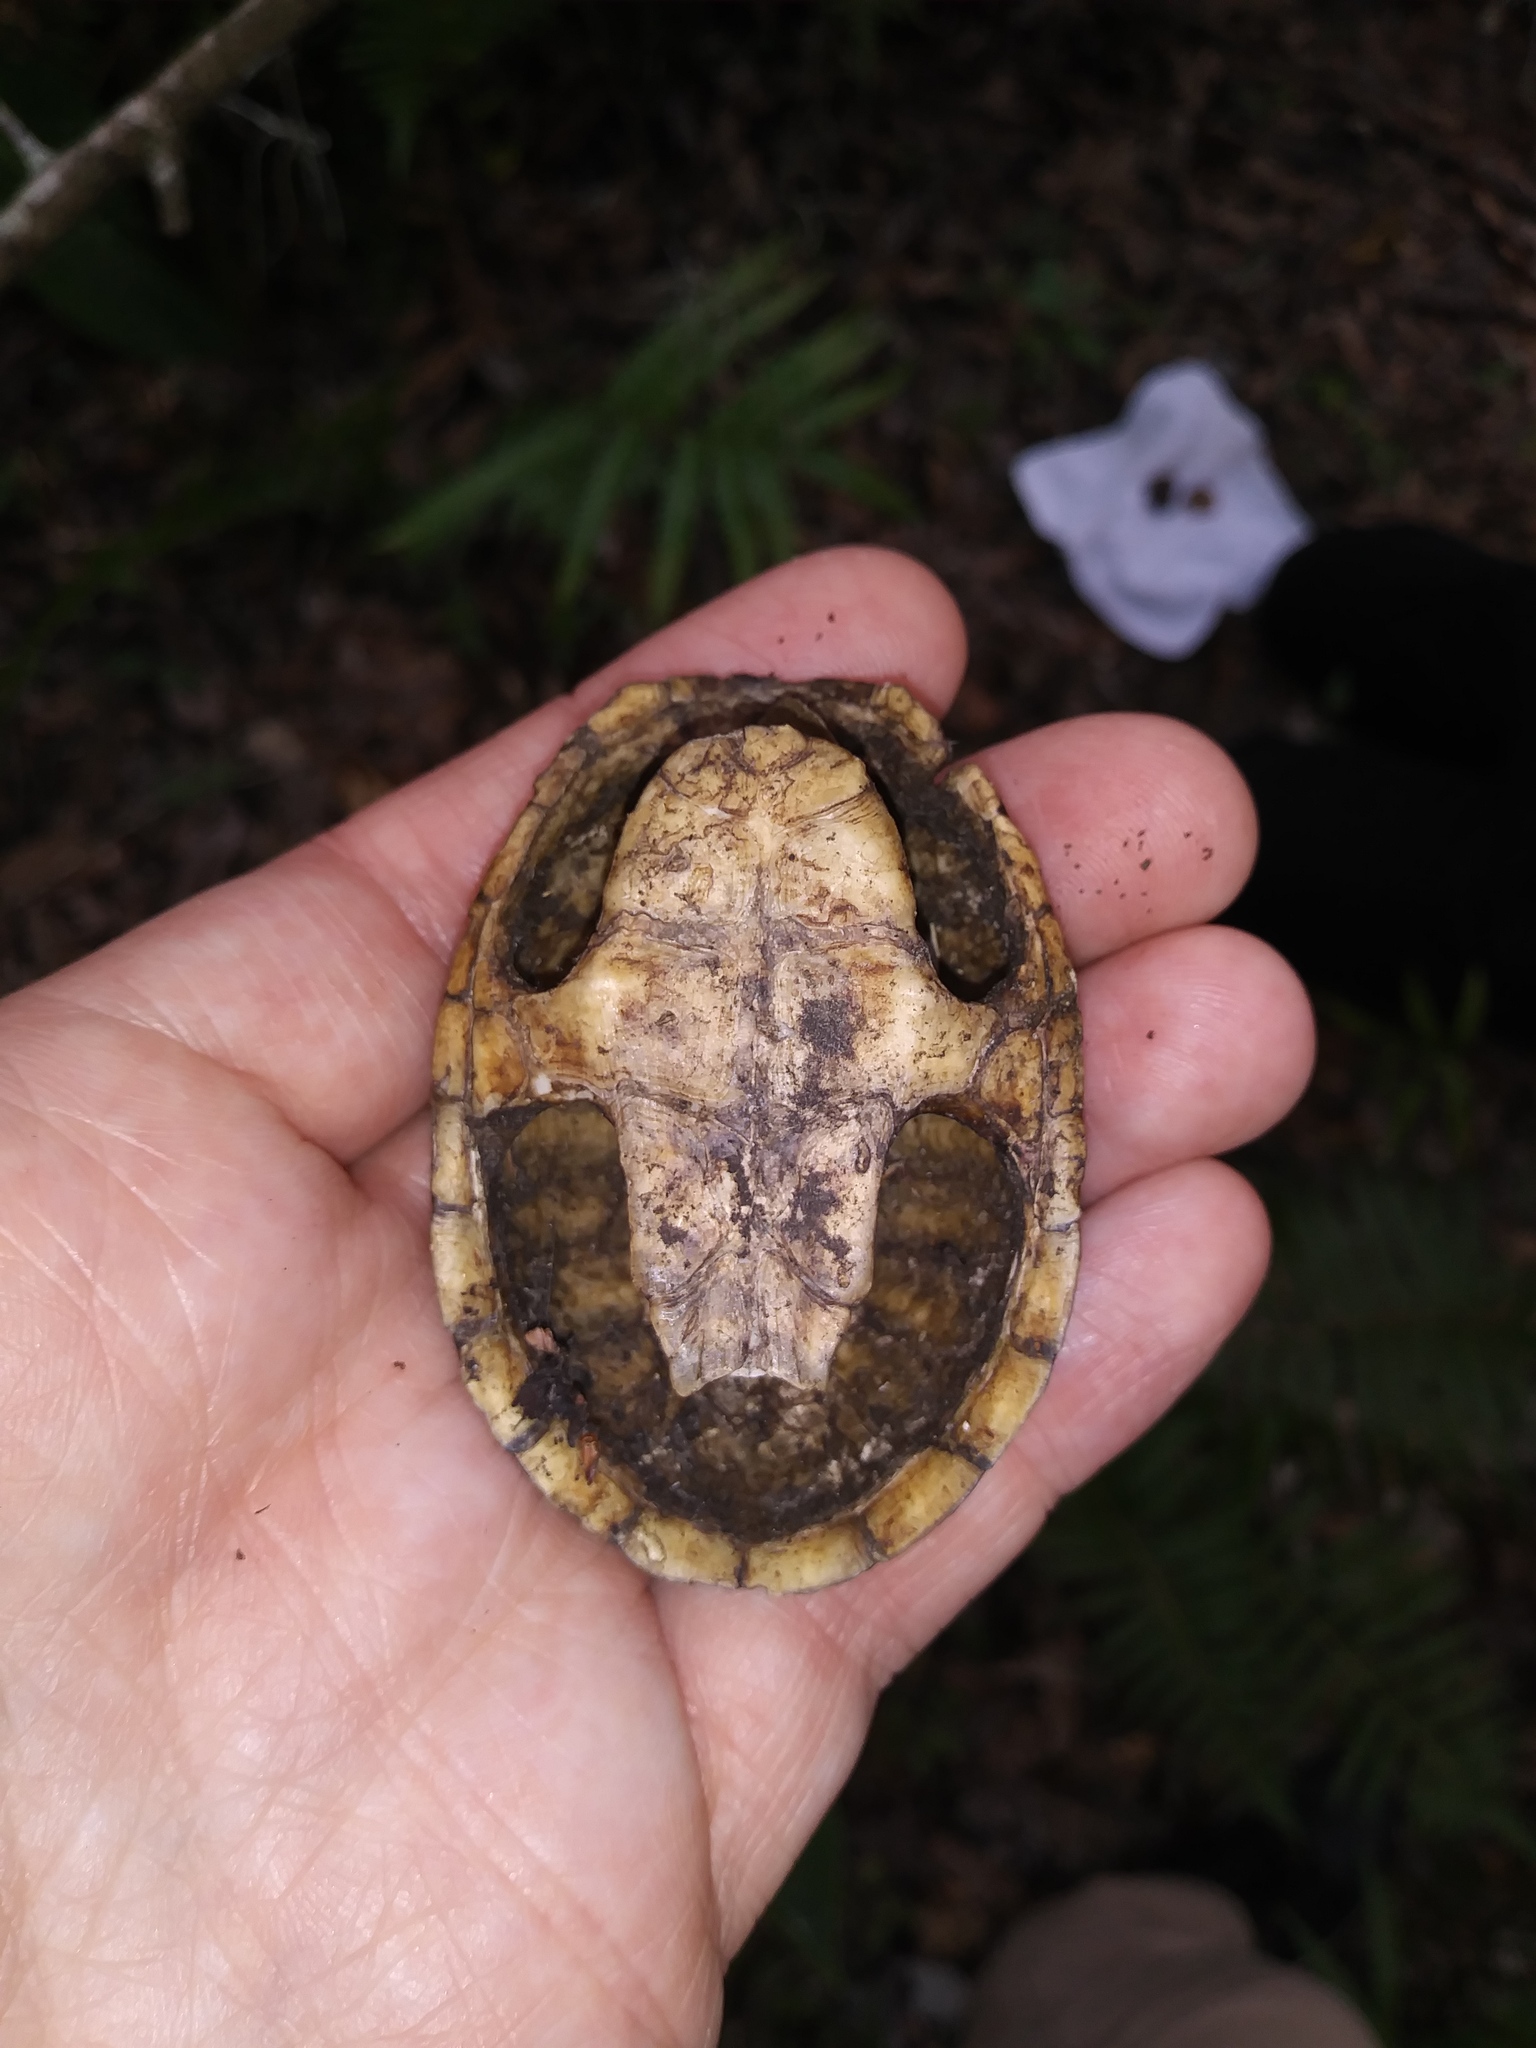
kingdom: Animalia
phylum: Chordata
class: Testudines
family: Kinosternidae
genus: Sternotherus
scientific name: Sternotherus odoratus
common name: Common musk turtle
